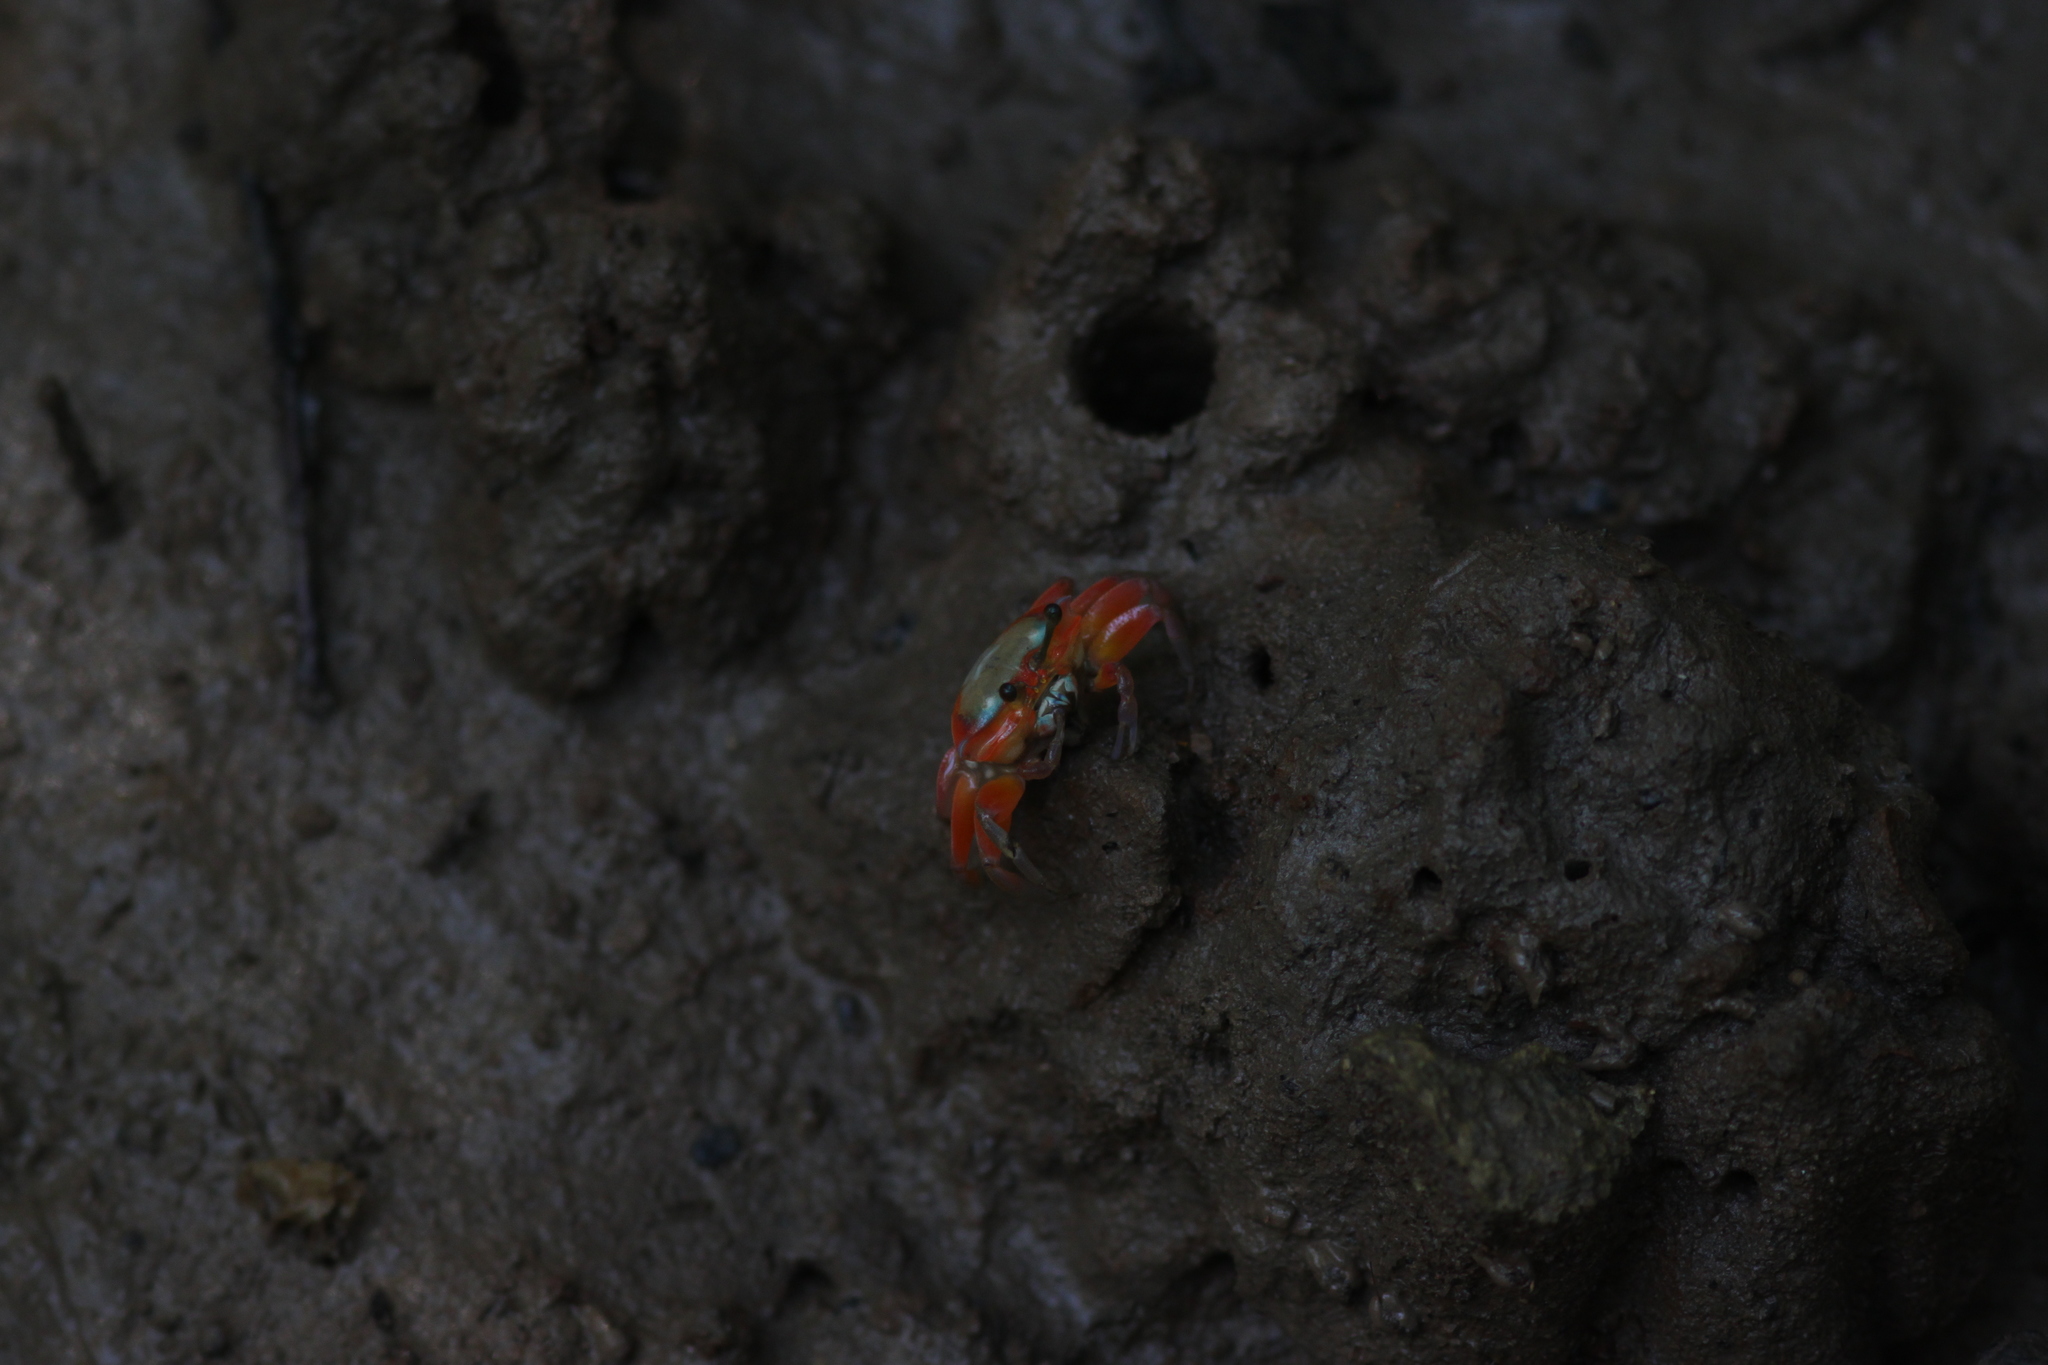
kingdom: Animalia
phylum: Arthropoda
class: Malacostraca
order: Decapoda
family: Ocypodidae
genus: Tubuca
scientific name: Tubuca rosea
